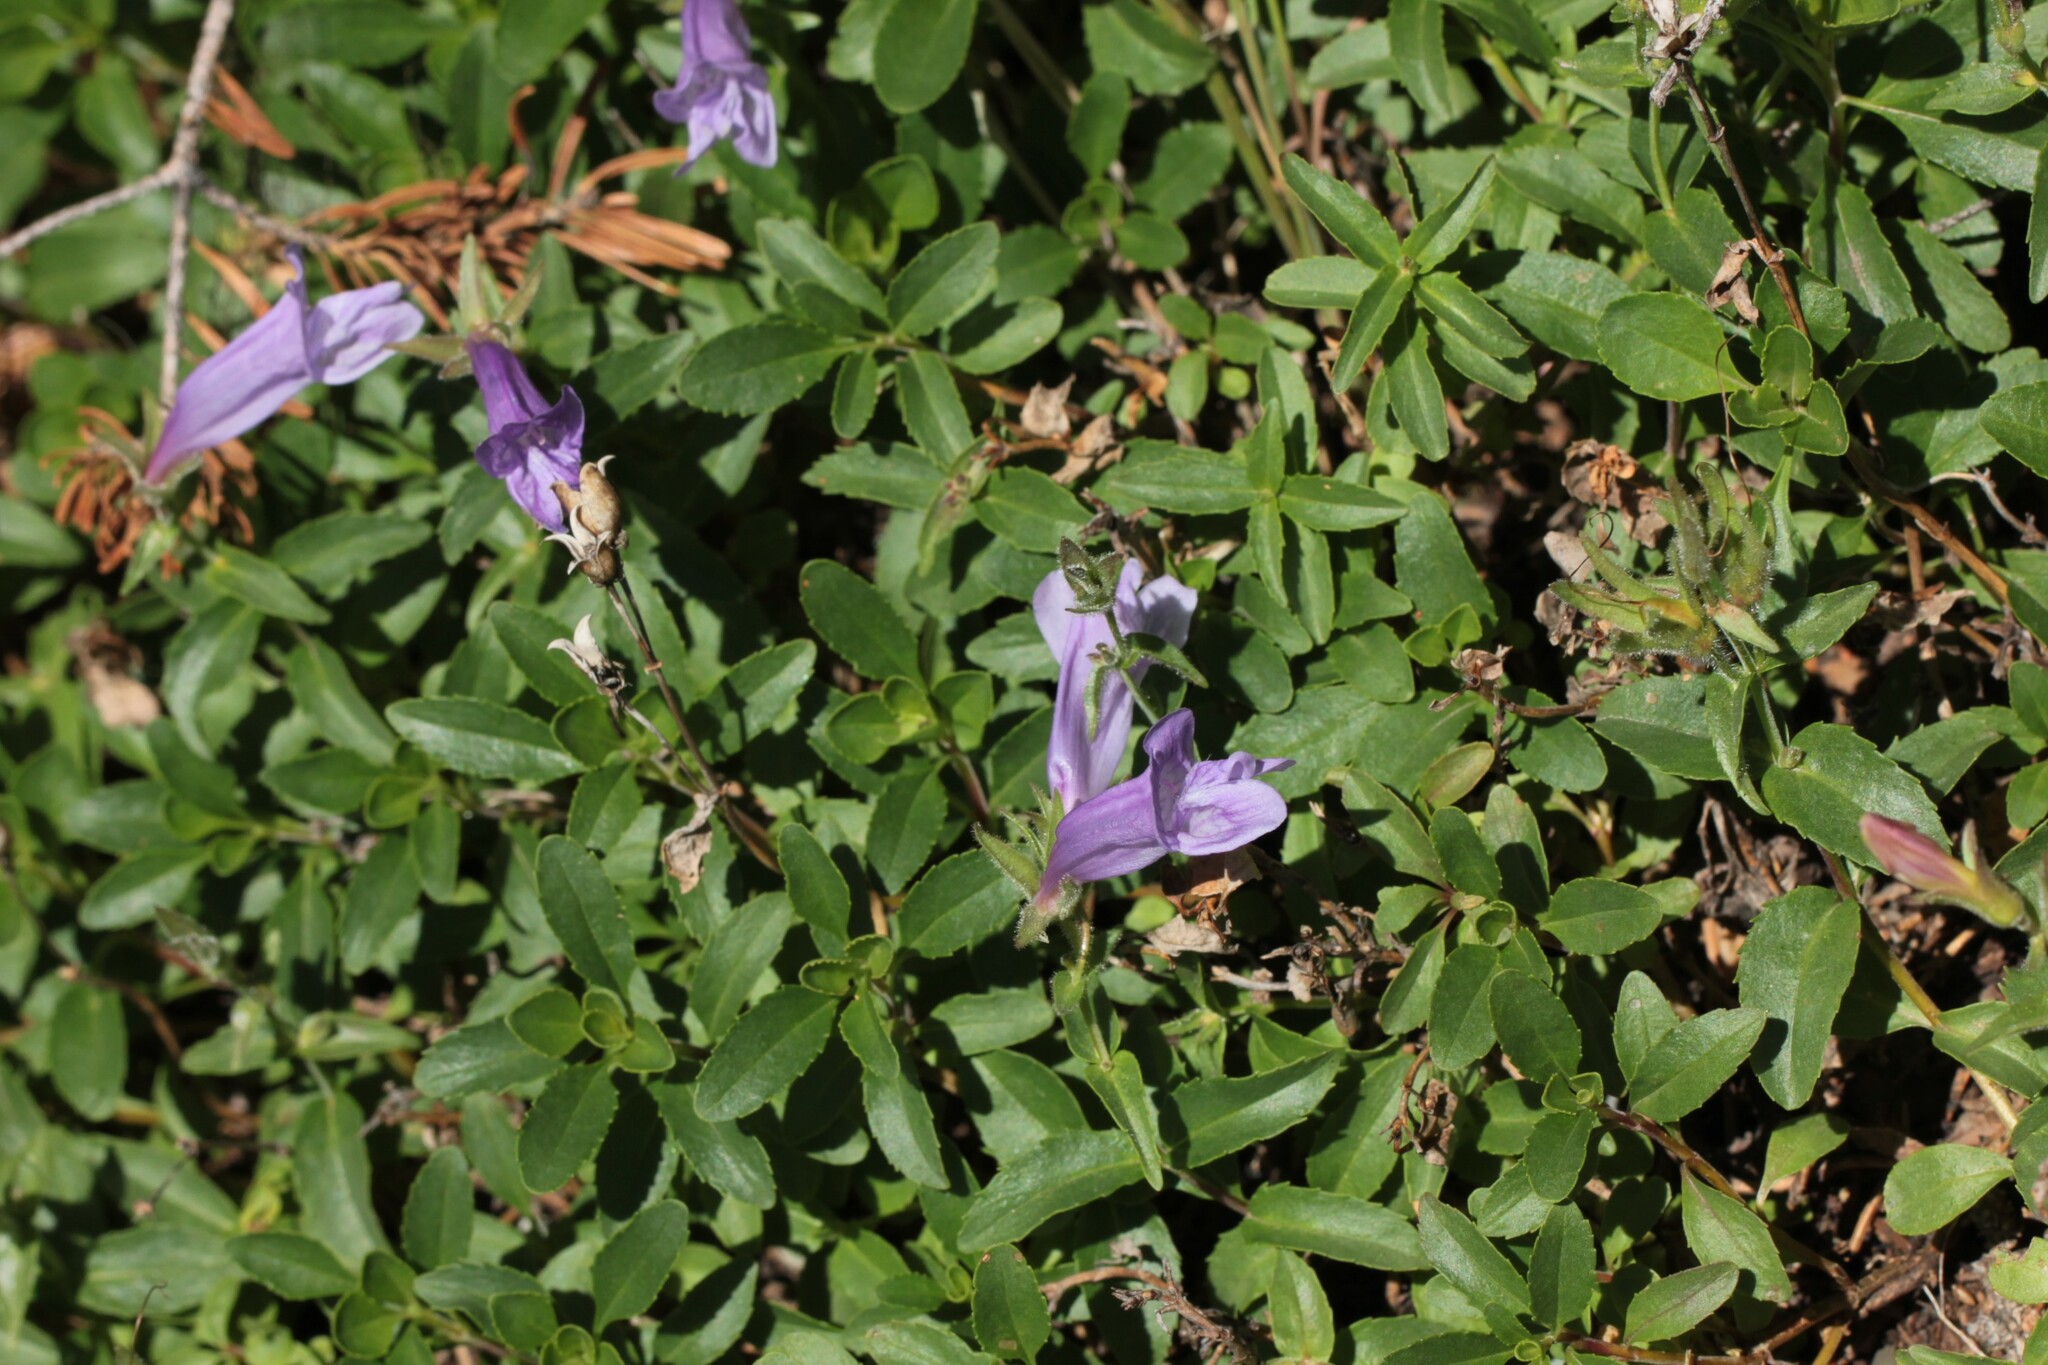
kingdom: Plantae
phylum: Tracheophyta
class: Magnoliopsida
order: Lamiales
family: Plantaginaceae
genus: Penstemon
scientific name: Penstemon ellipticus
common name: Alpine beardtongue
